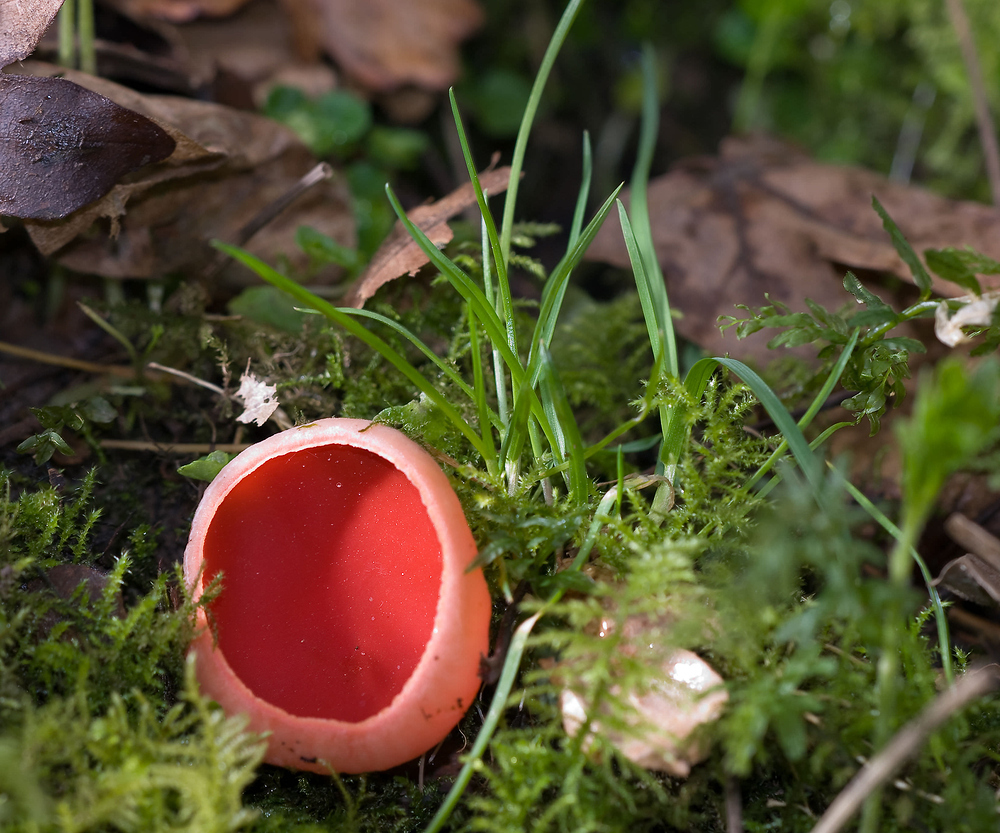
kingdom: Fungi
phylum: Ascomycota
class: Pezizomycetes
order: Pezizales
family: Sarcoscyphaceae
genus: Sarcoscypha
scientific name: Sarcoscypha
